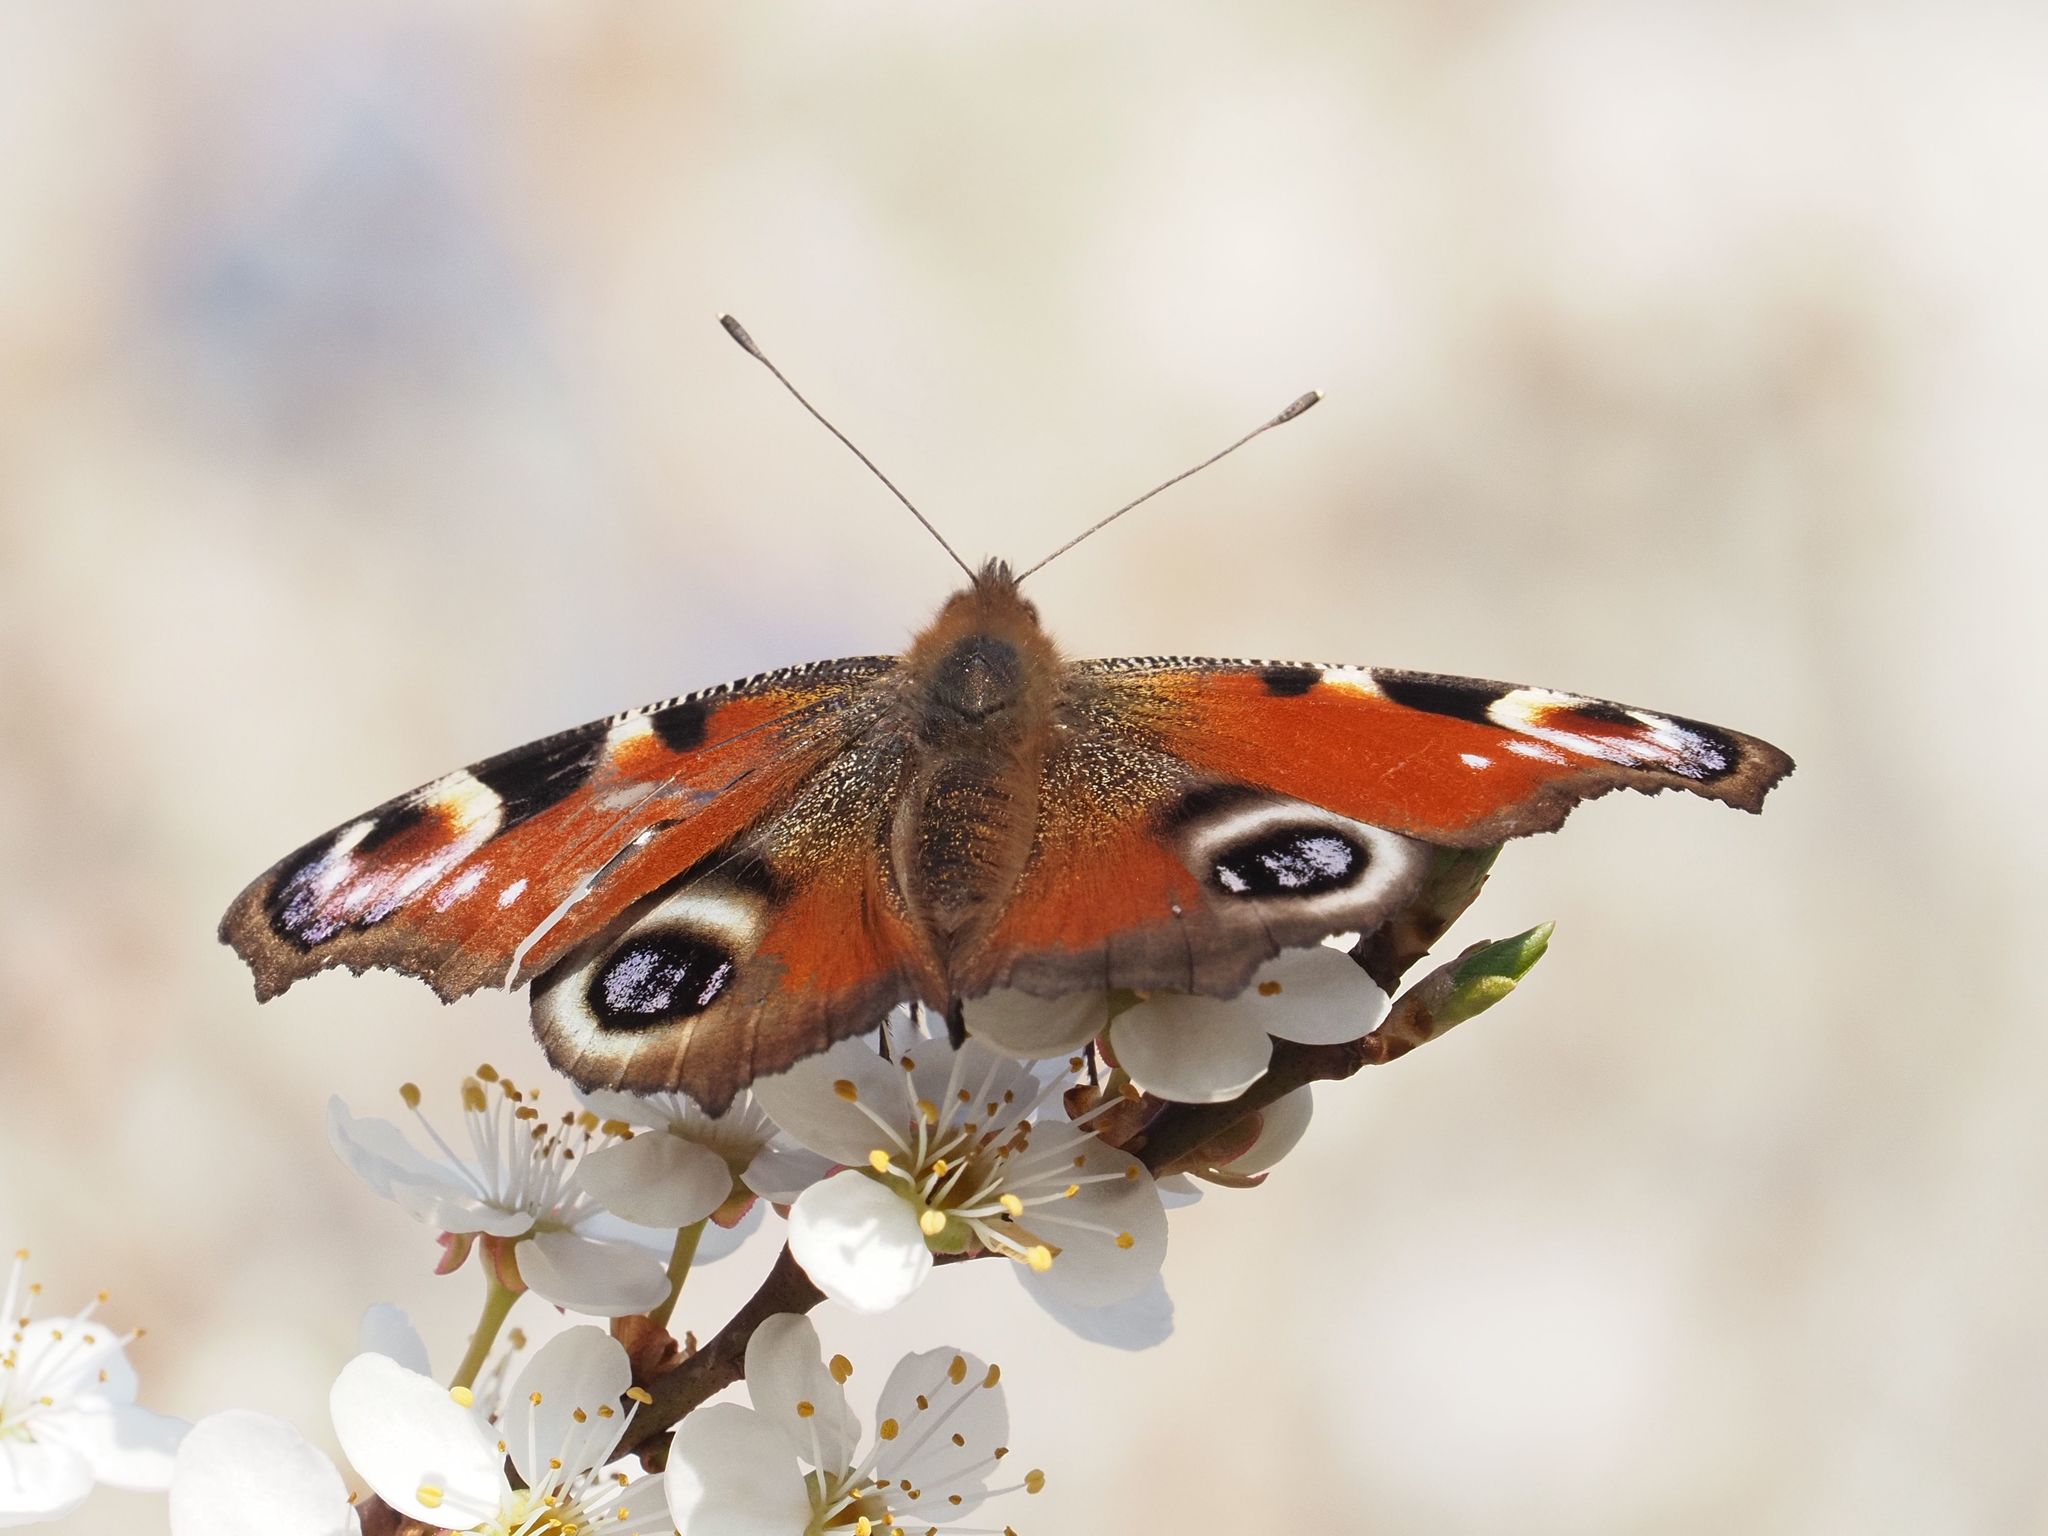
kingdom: Animalia
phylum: Arthropoda
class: Insecta
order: Lepidoptera
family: Nymphalidae
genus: Aglais
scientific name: Aglais io
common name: Peacock
